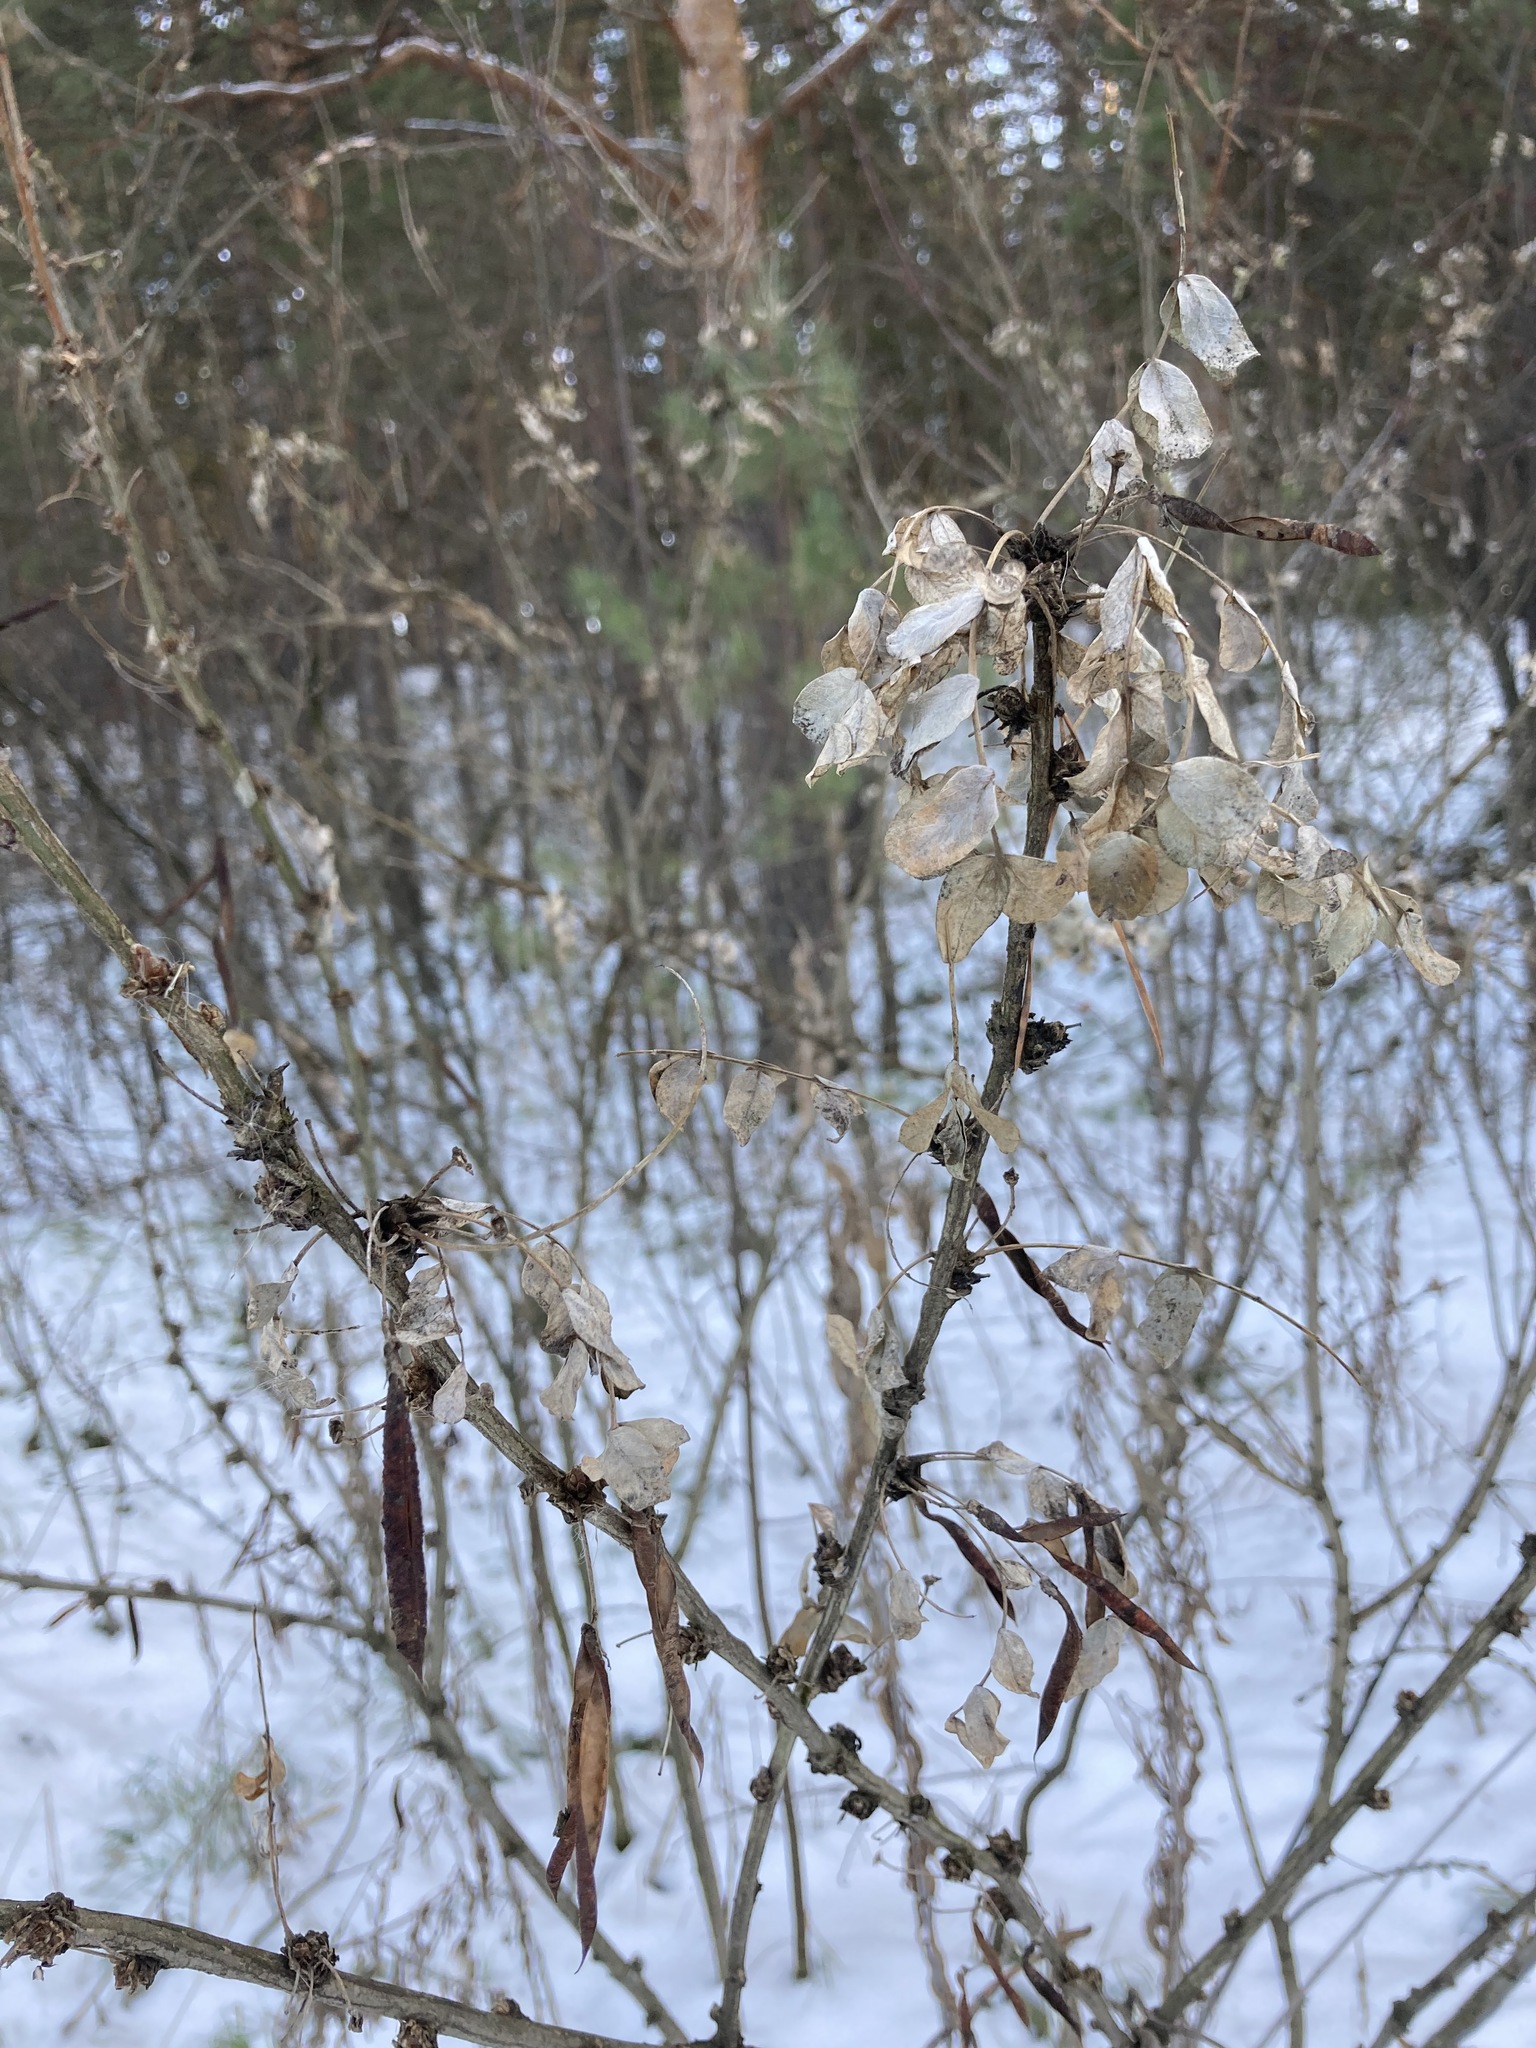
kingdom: Plantae
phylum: Tracheophyta
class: Magnoliopsida
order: Fabales
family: Fabaceae
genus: Caragana
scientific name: Caragana arborescens
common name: Siberian peashrub
